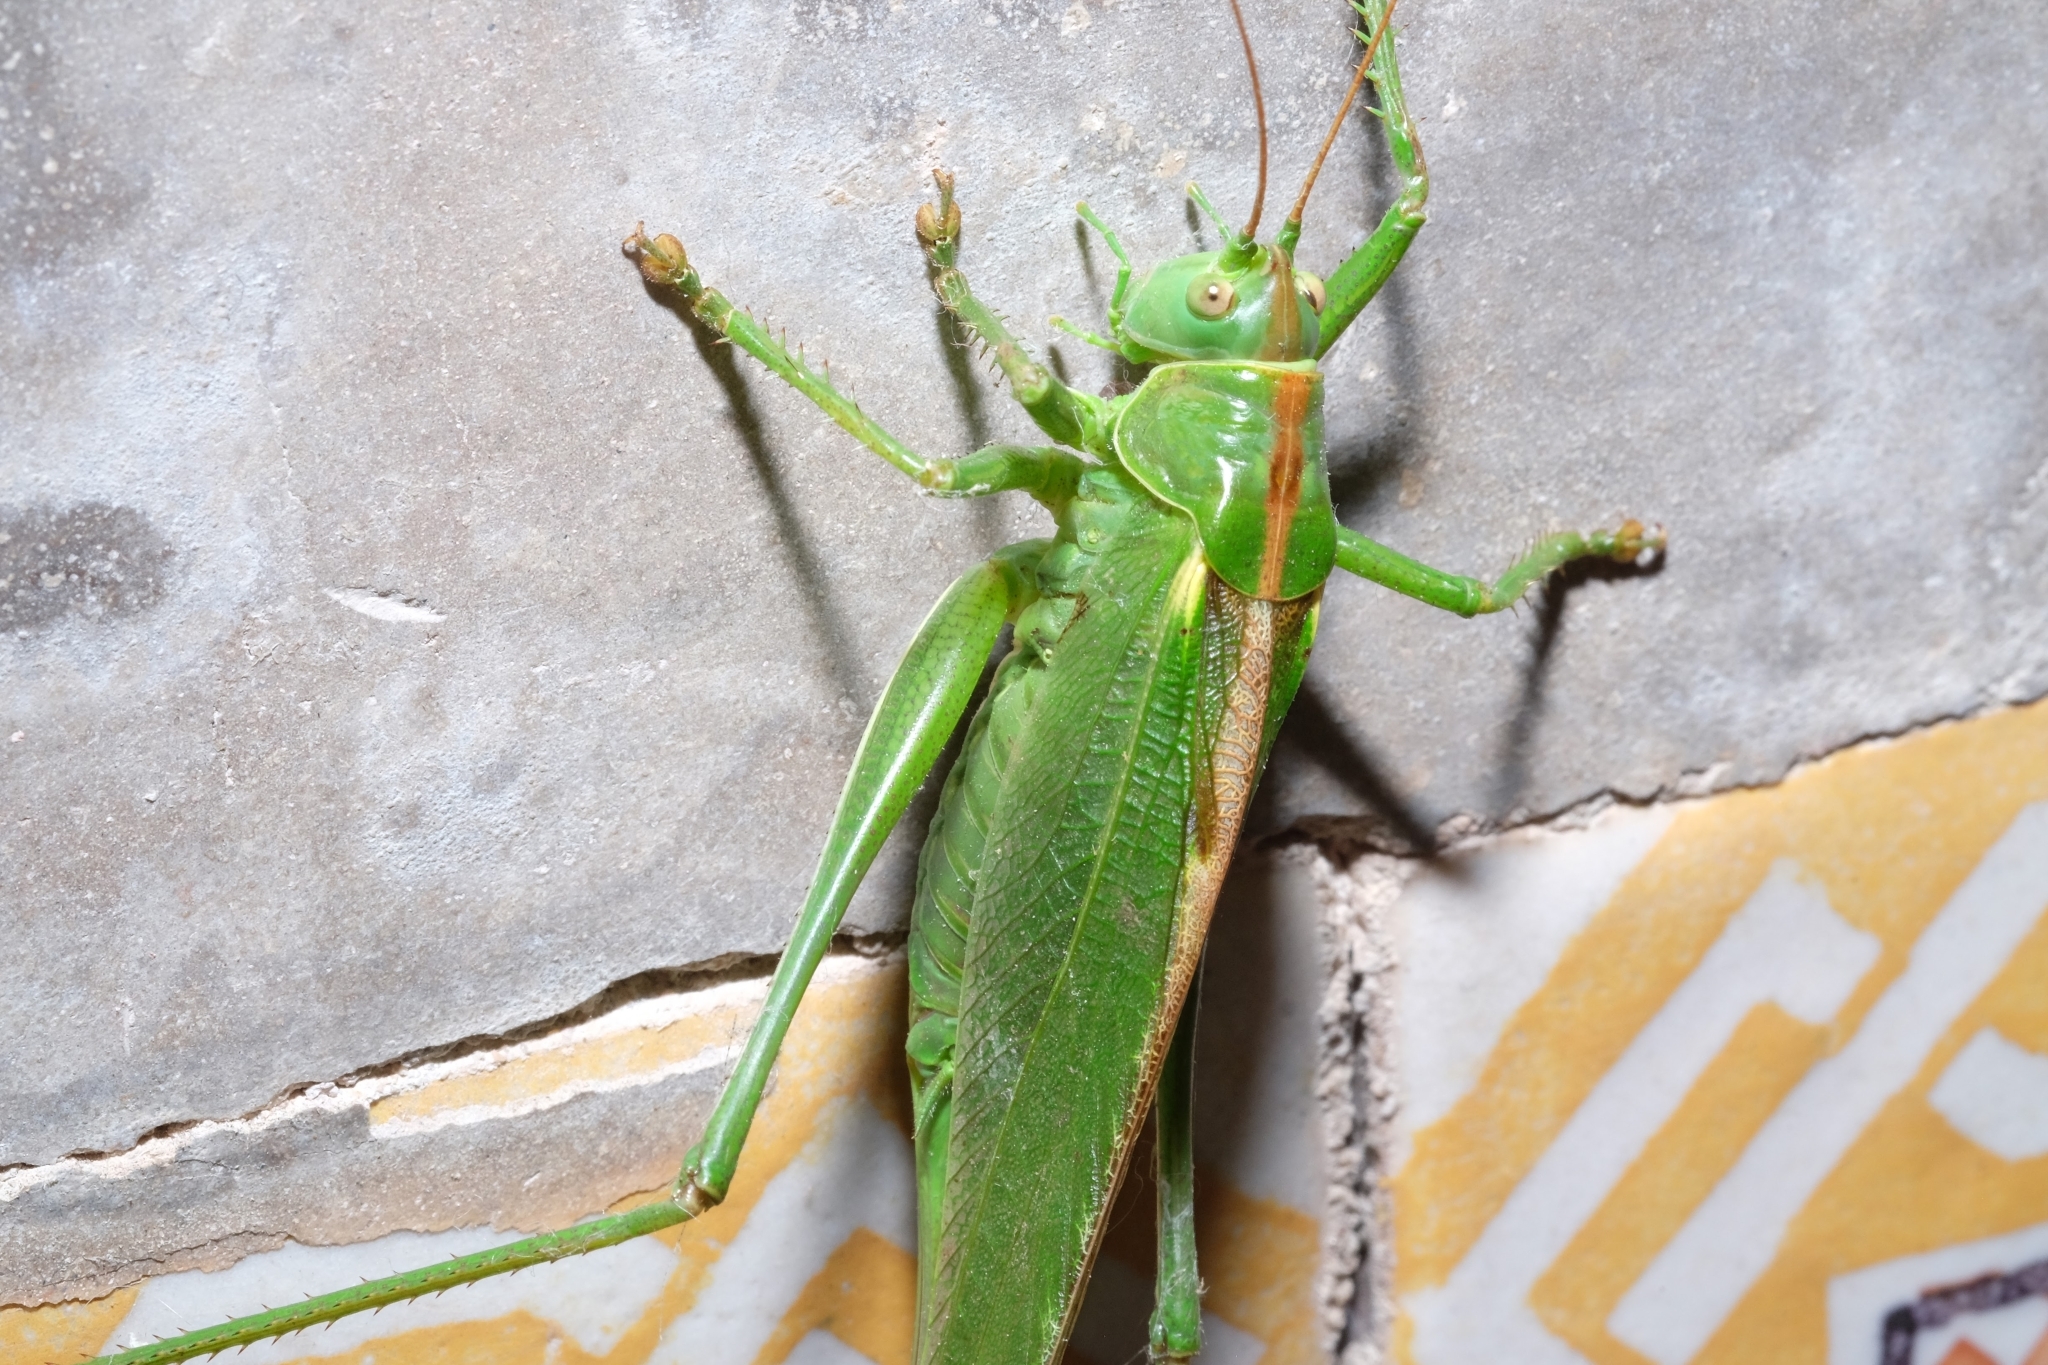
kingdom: Animalia
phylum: Arthropoda
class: Insecta
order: Orthoptera
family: Tettigoniidae
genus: Tettigonia
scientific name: Tettigonia viridissima
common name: Great green bush-cricket
